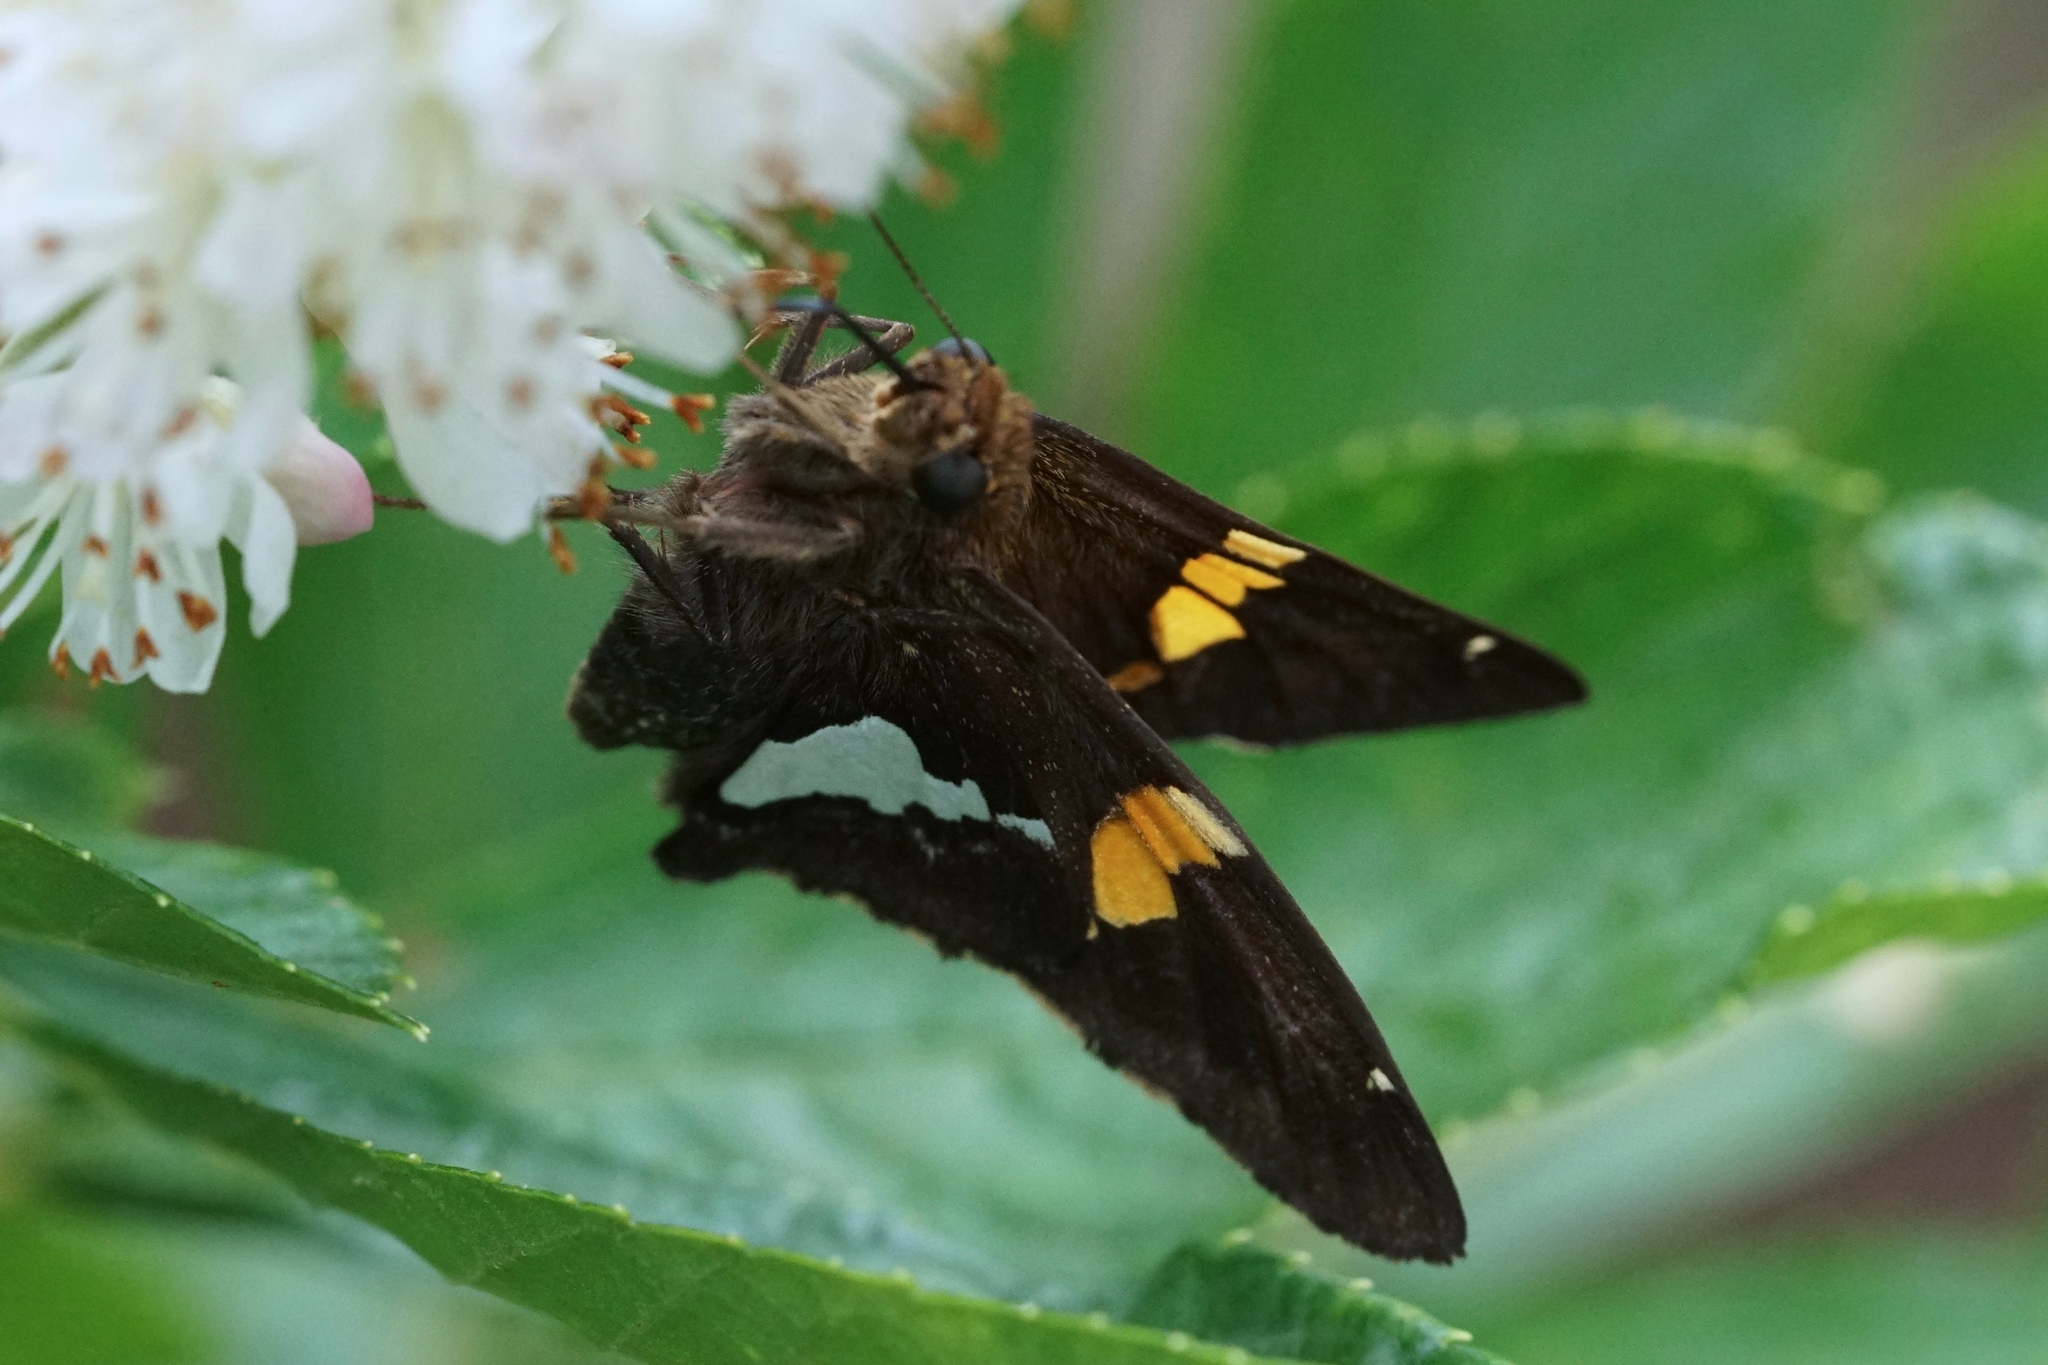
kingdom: Animalia
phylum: Arthropoda
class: Insecta
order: Lepidoptera
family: Hesperiidae
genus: Epargyreus
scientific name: Epargyreus clarus
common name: Silver-spotted skipper
